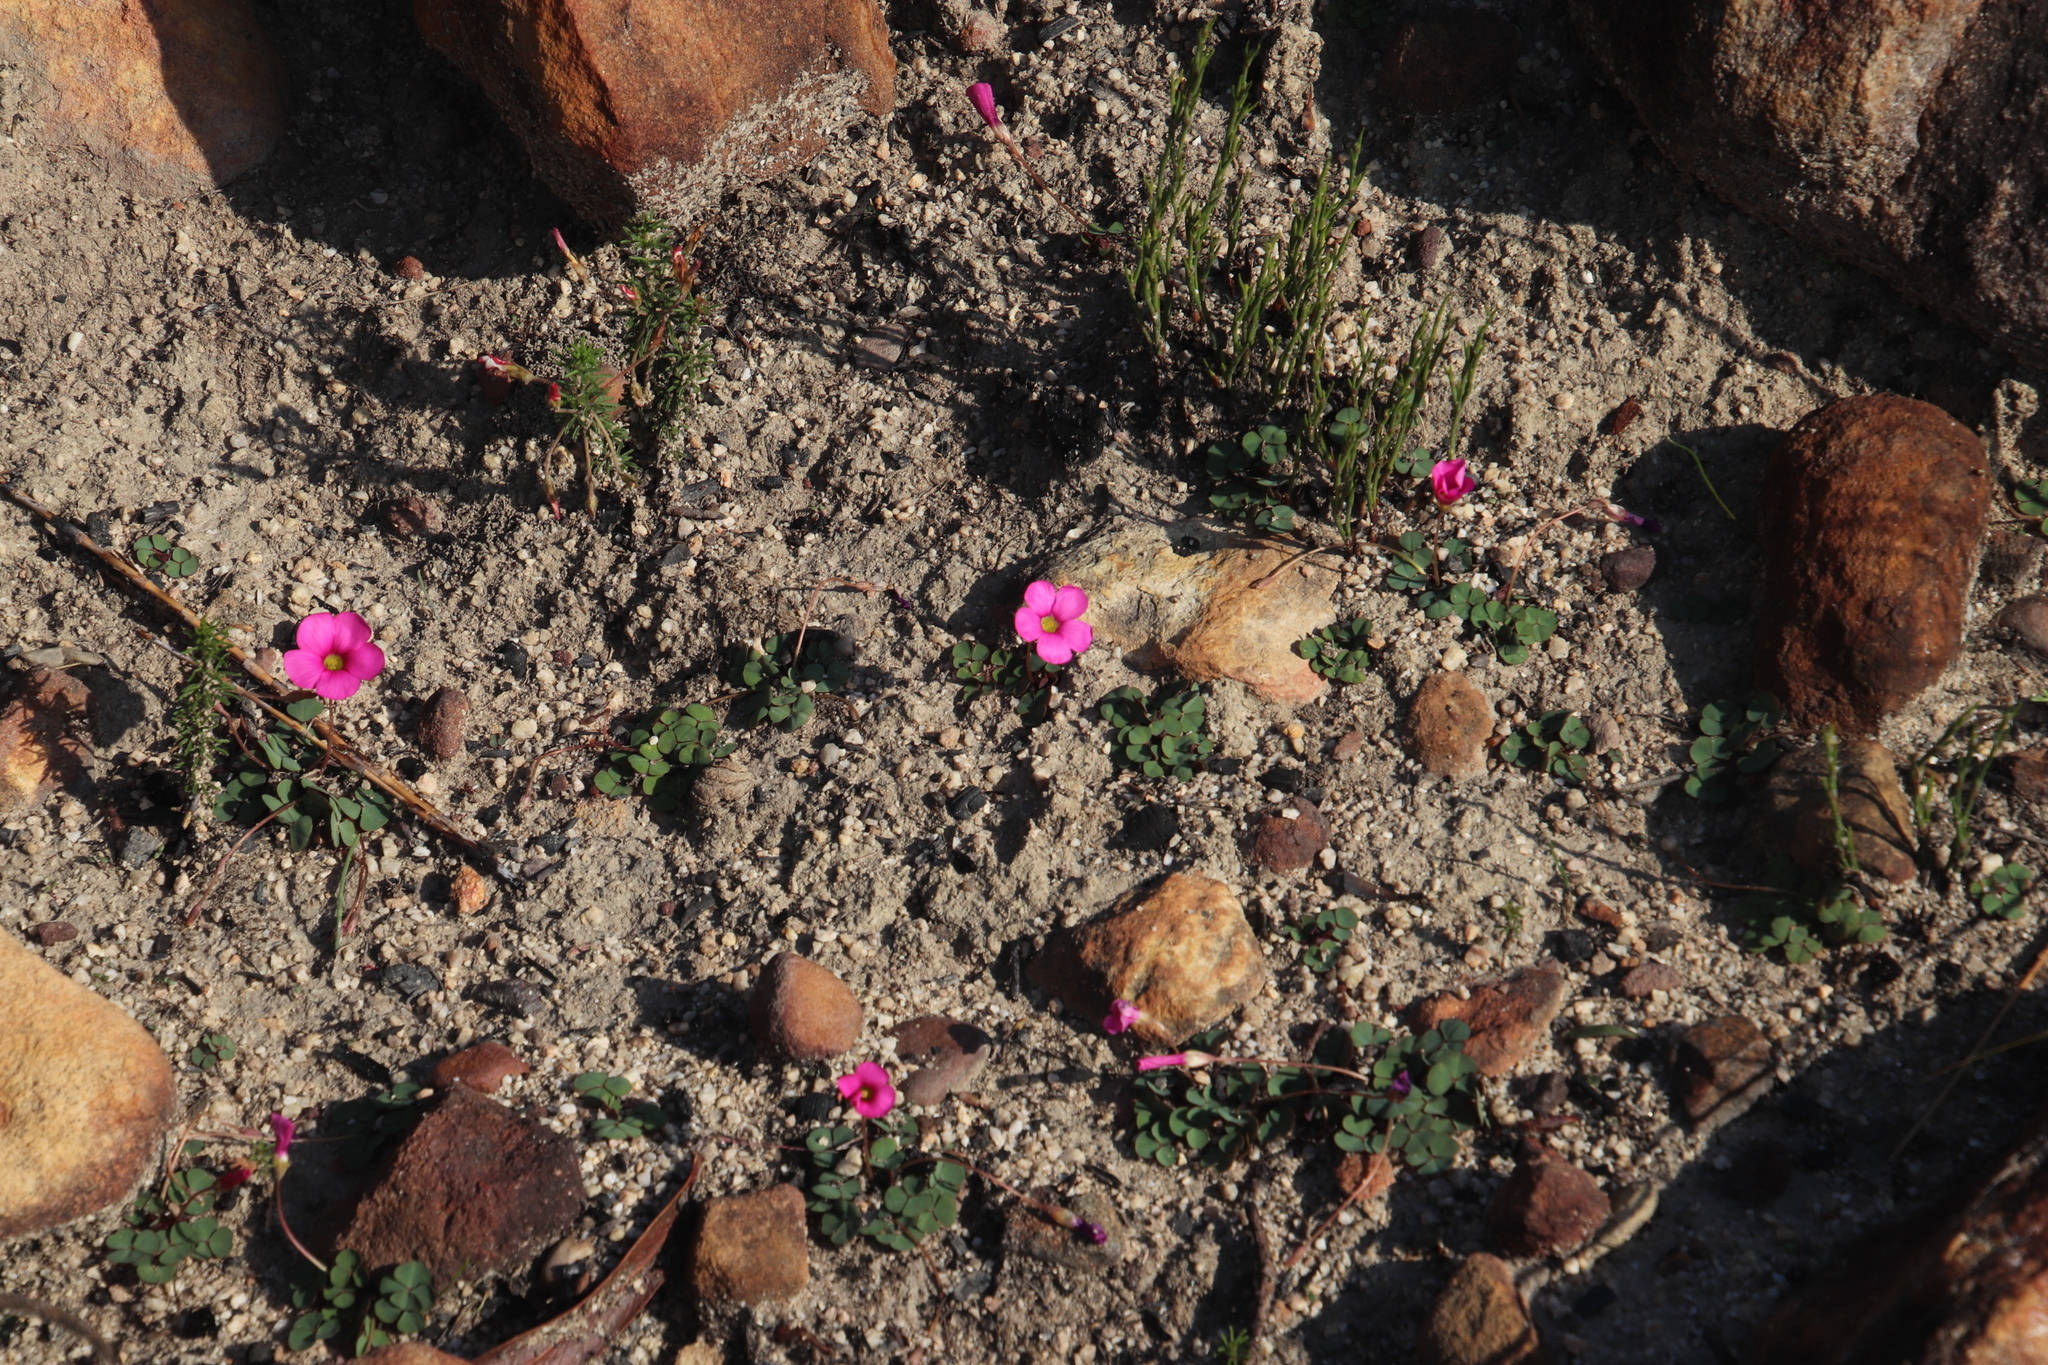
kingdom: Plantae
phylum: Tracheophyta
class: Magnoliopsida
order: Oxalidales
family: Oxalidaceae
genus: Oxalis
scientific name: Oxalis purpurea
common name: Purple woodsorrel
